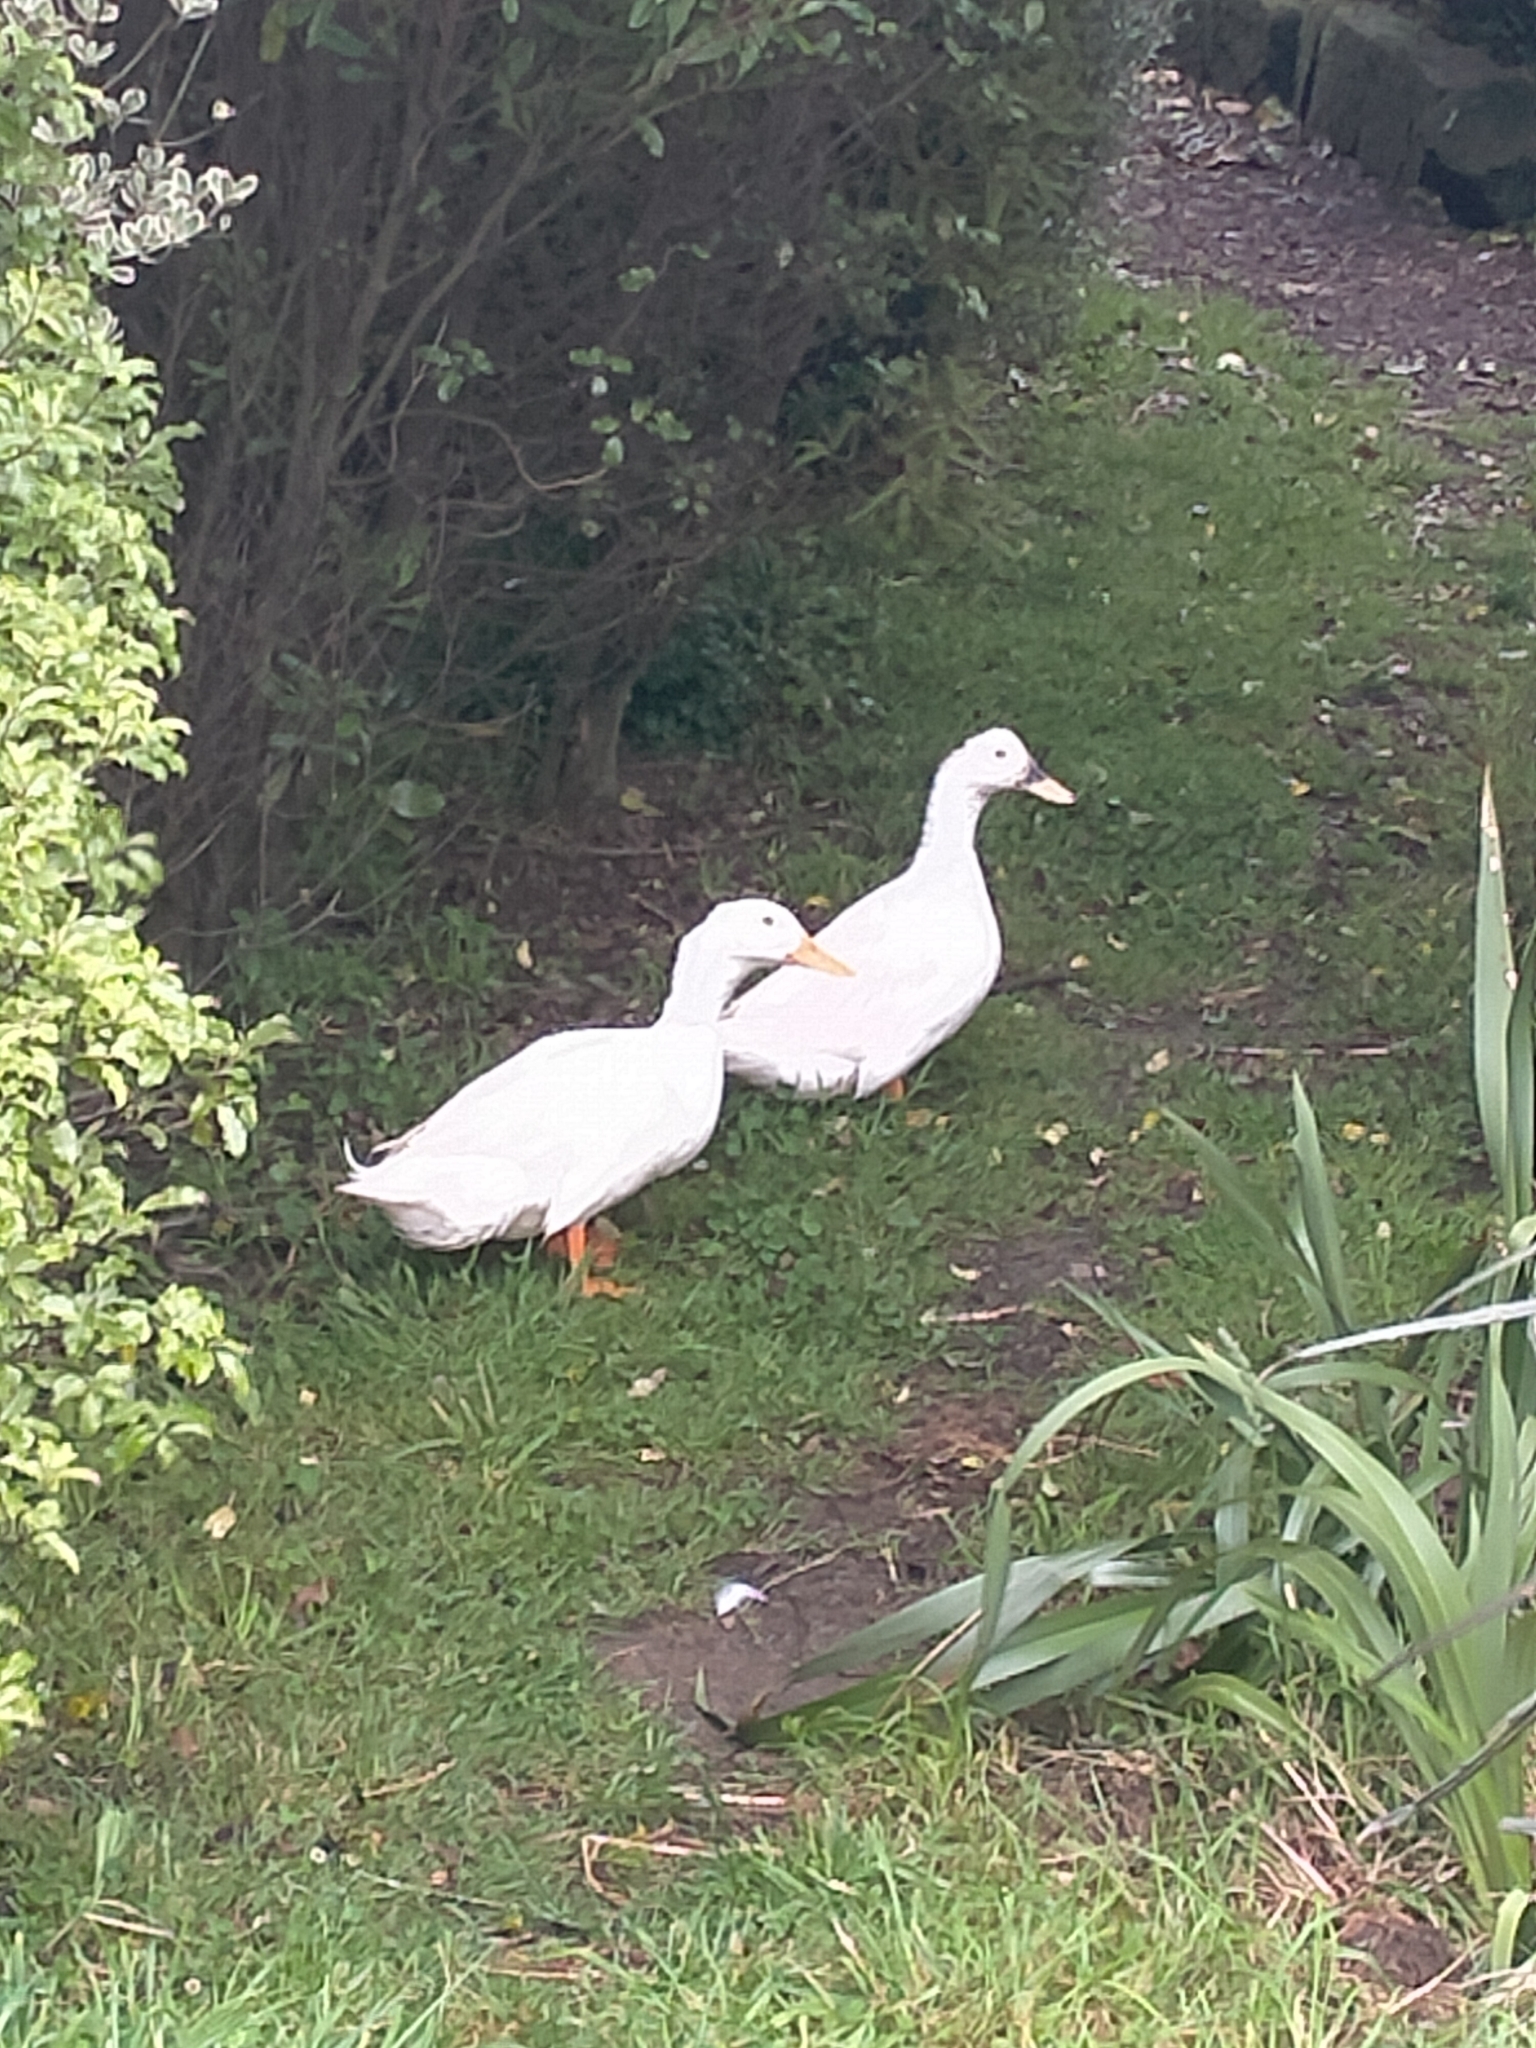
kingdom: Animalia
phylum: Chordata
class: Aves
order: Anseriformes
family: Anatidae
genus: Anas
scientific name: Anas platyrhynchos
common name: Mallard
